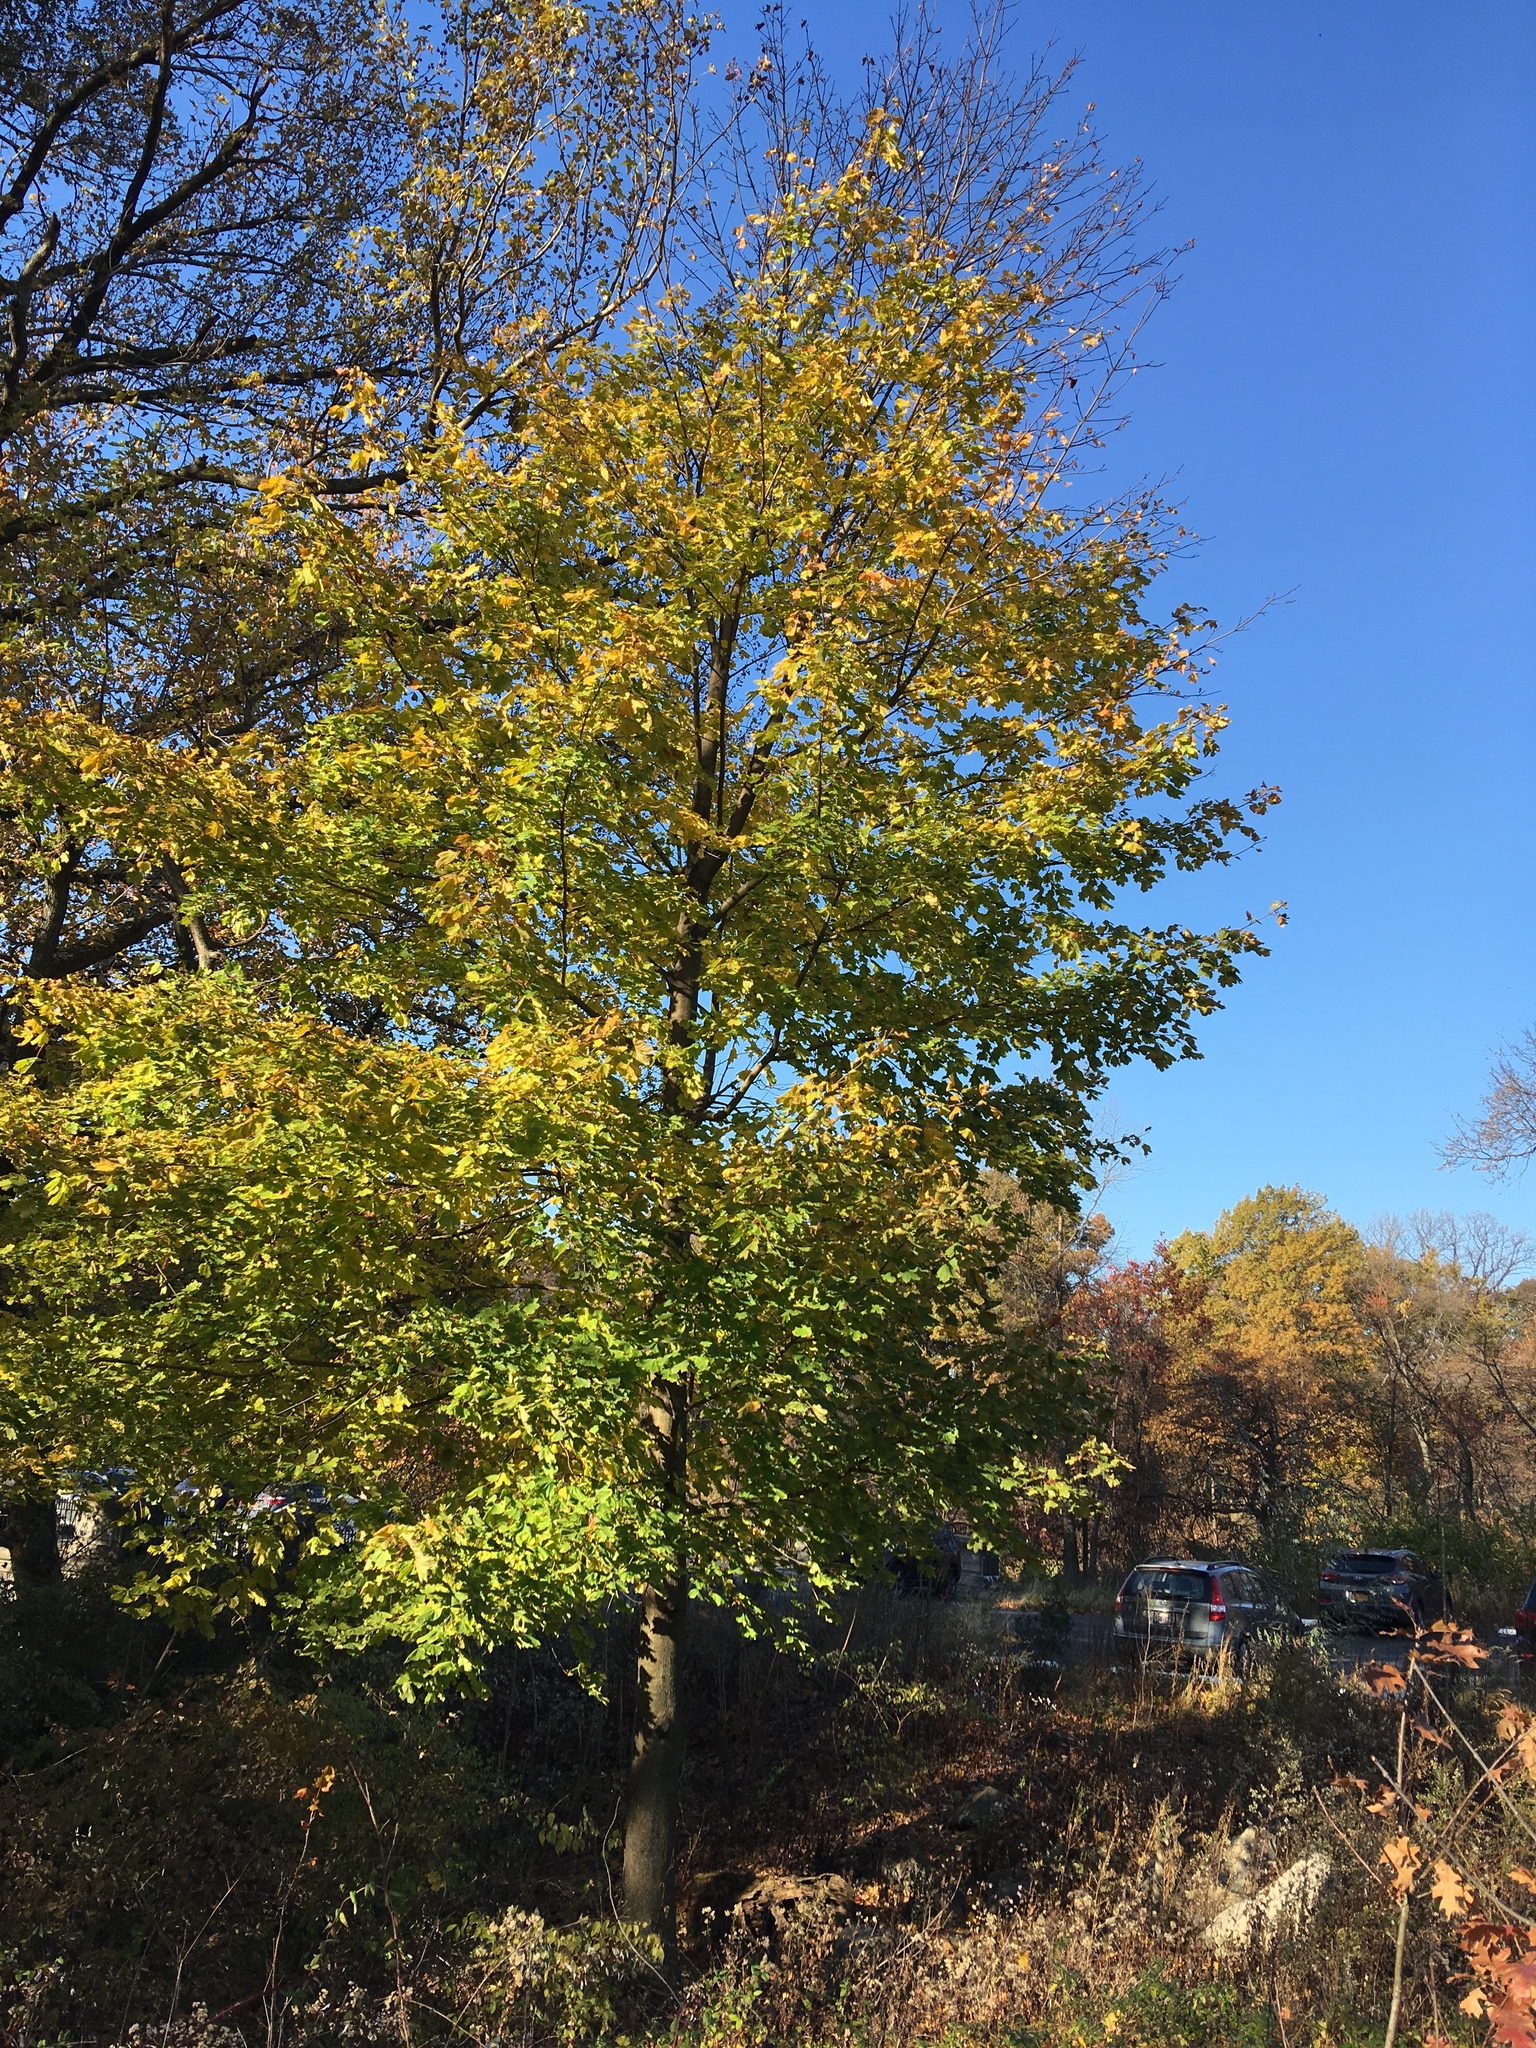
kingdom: Plantae
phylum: Tracheophyta
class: Magnoliopsida
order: Sapindales
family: Sapindaceae
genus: Acer
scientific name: Acer platanoides
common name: Norway maple
